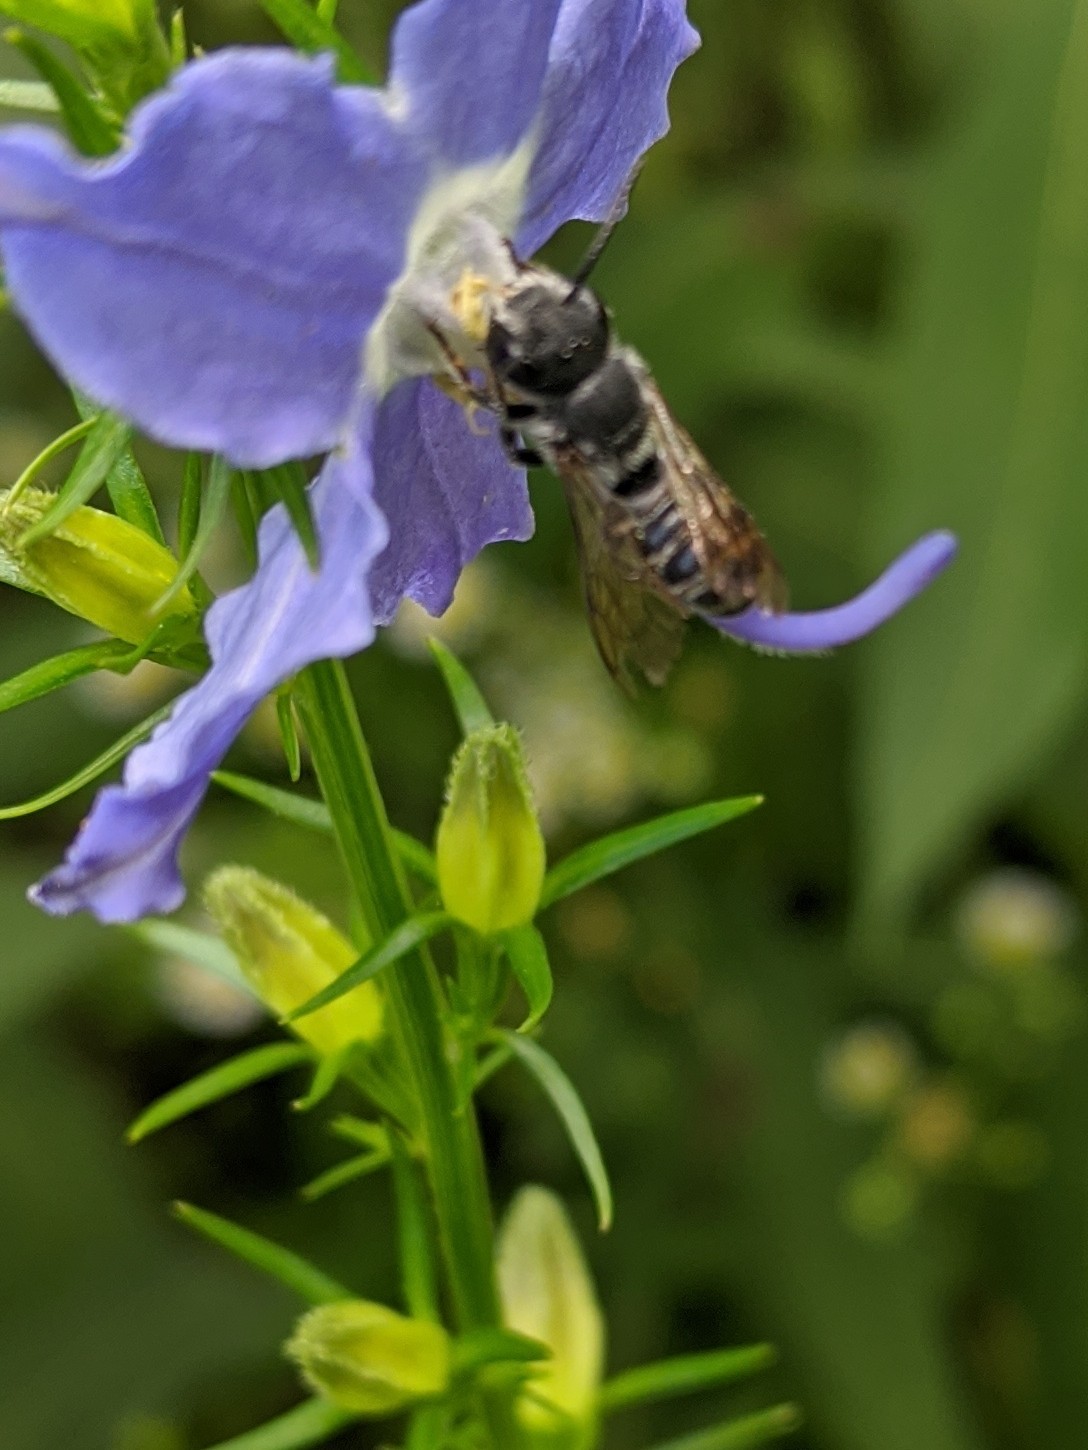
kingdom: Animalia
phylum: Arthropoda
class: Insecta
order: Hymenoptera
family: Megachilidae
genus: Megachile
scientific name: Megachile campanulae
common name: Bellflower resin bee
